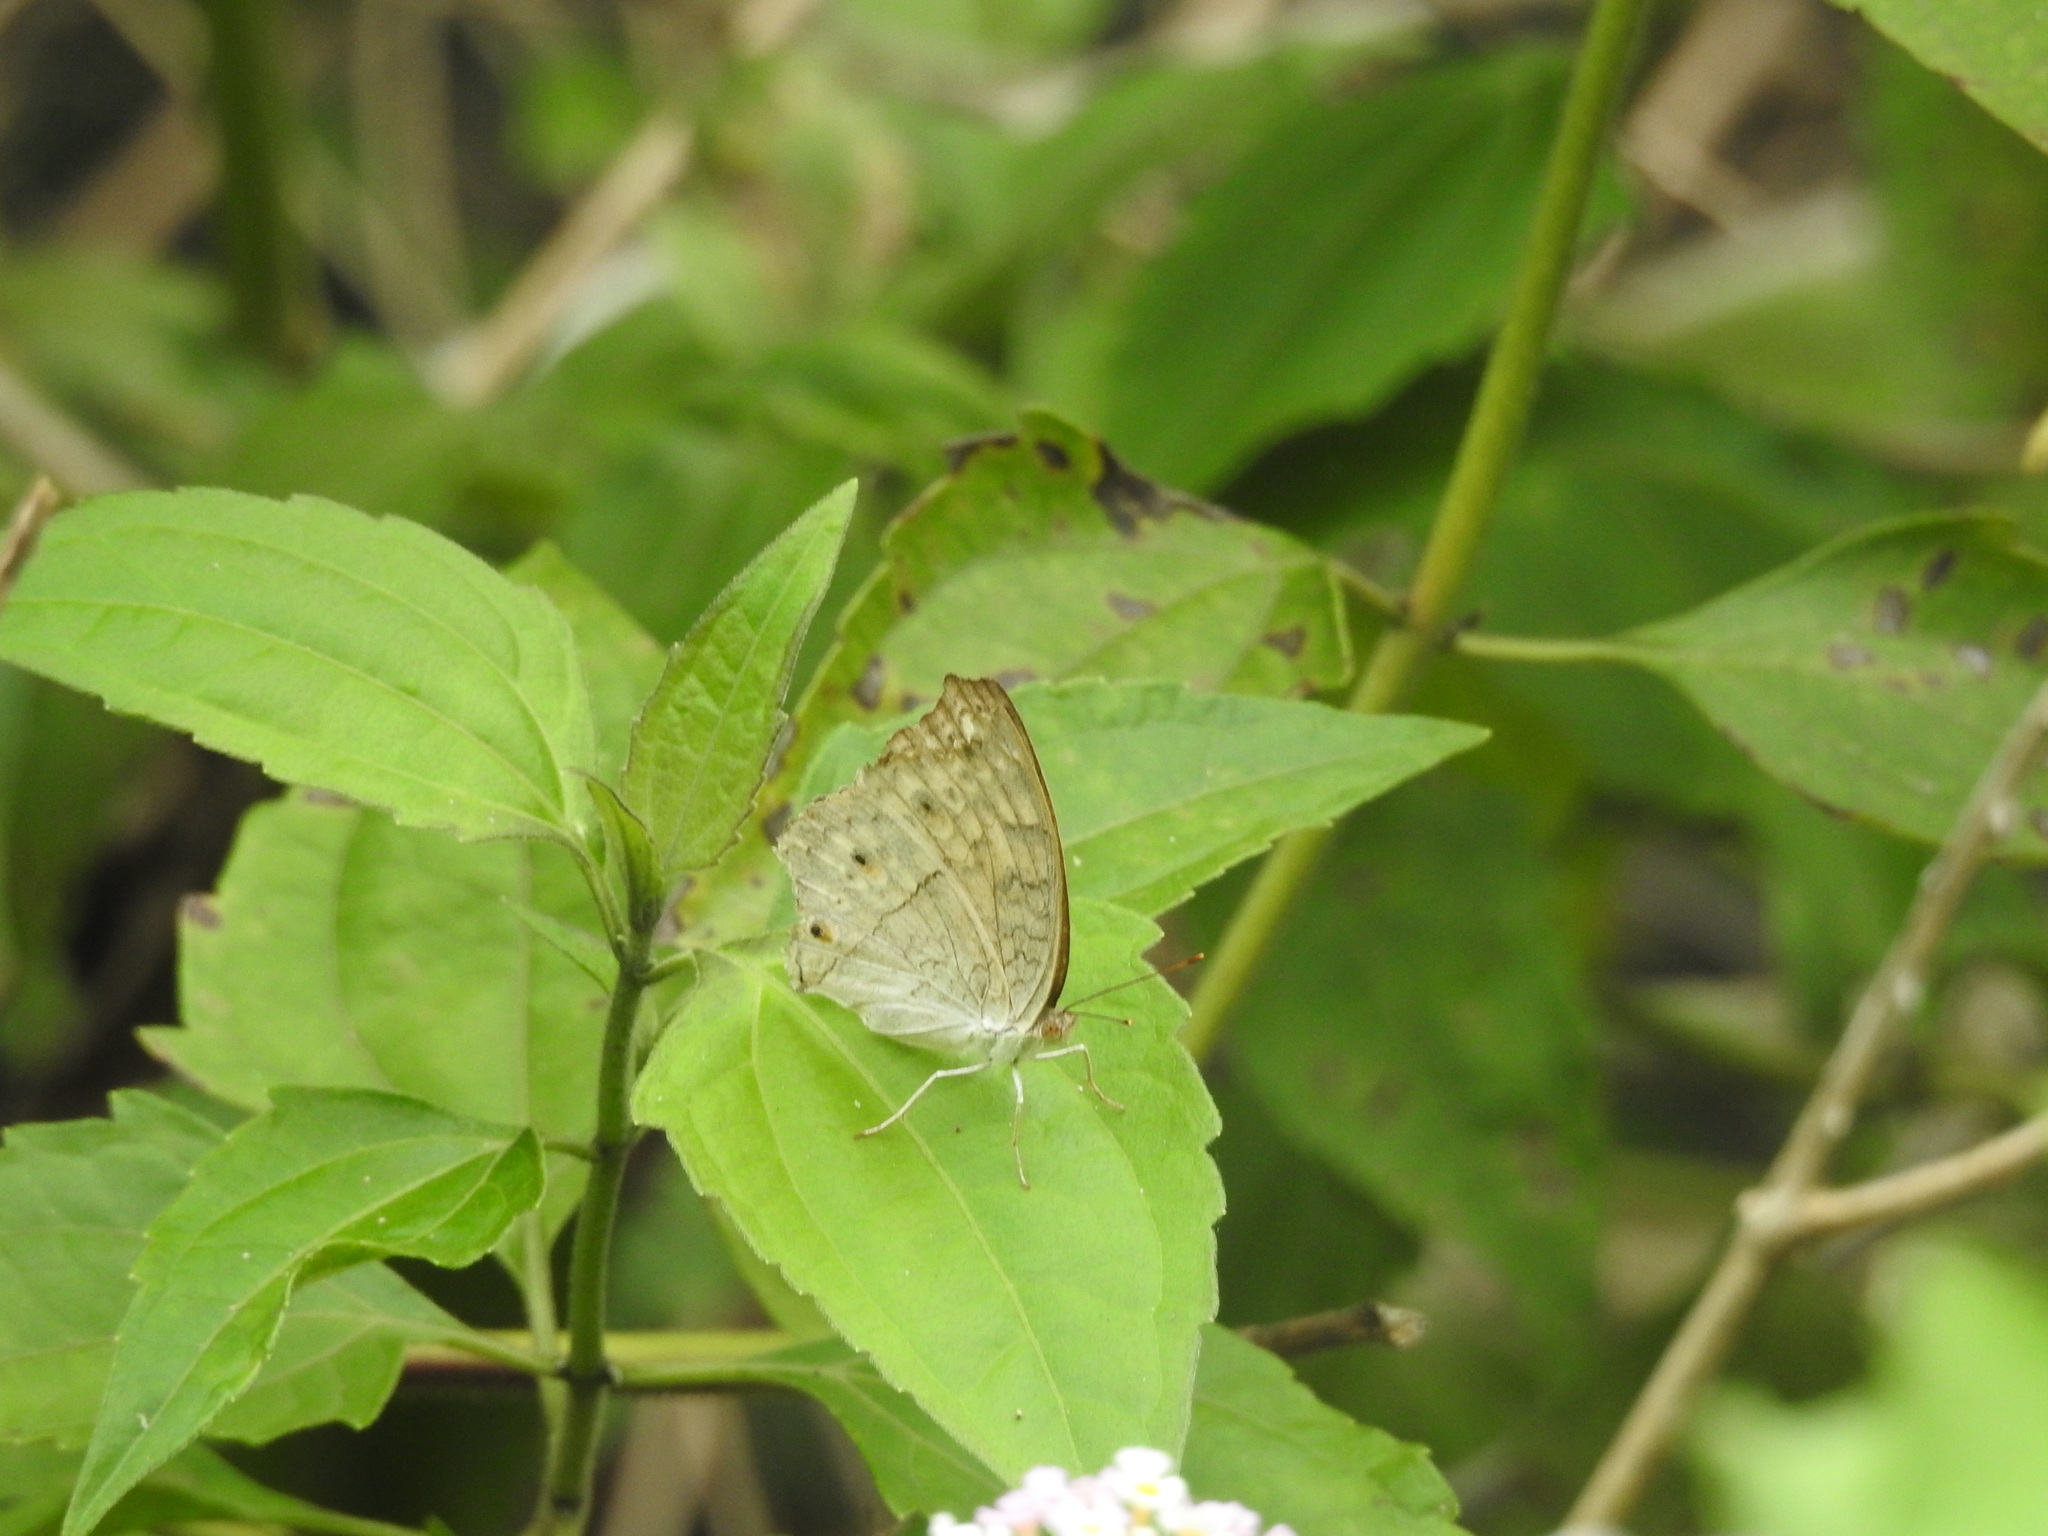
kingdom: Animalia
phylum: Arthropoda
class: Insecta
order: Lepidoptera
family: Nymphalidae
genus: Junonia
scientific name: Junonia atlites
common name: Grey pansy
